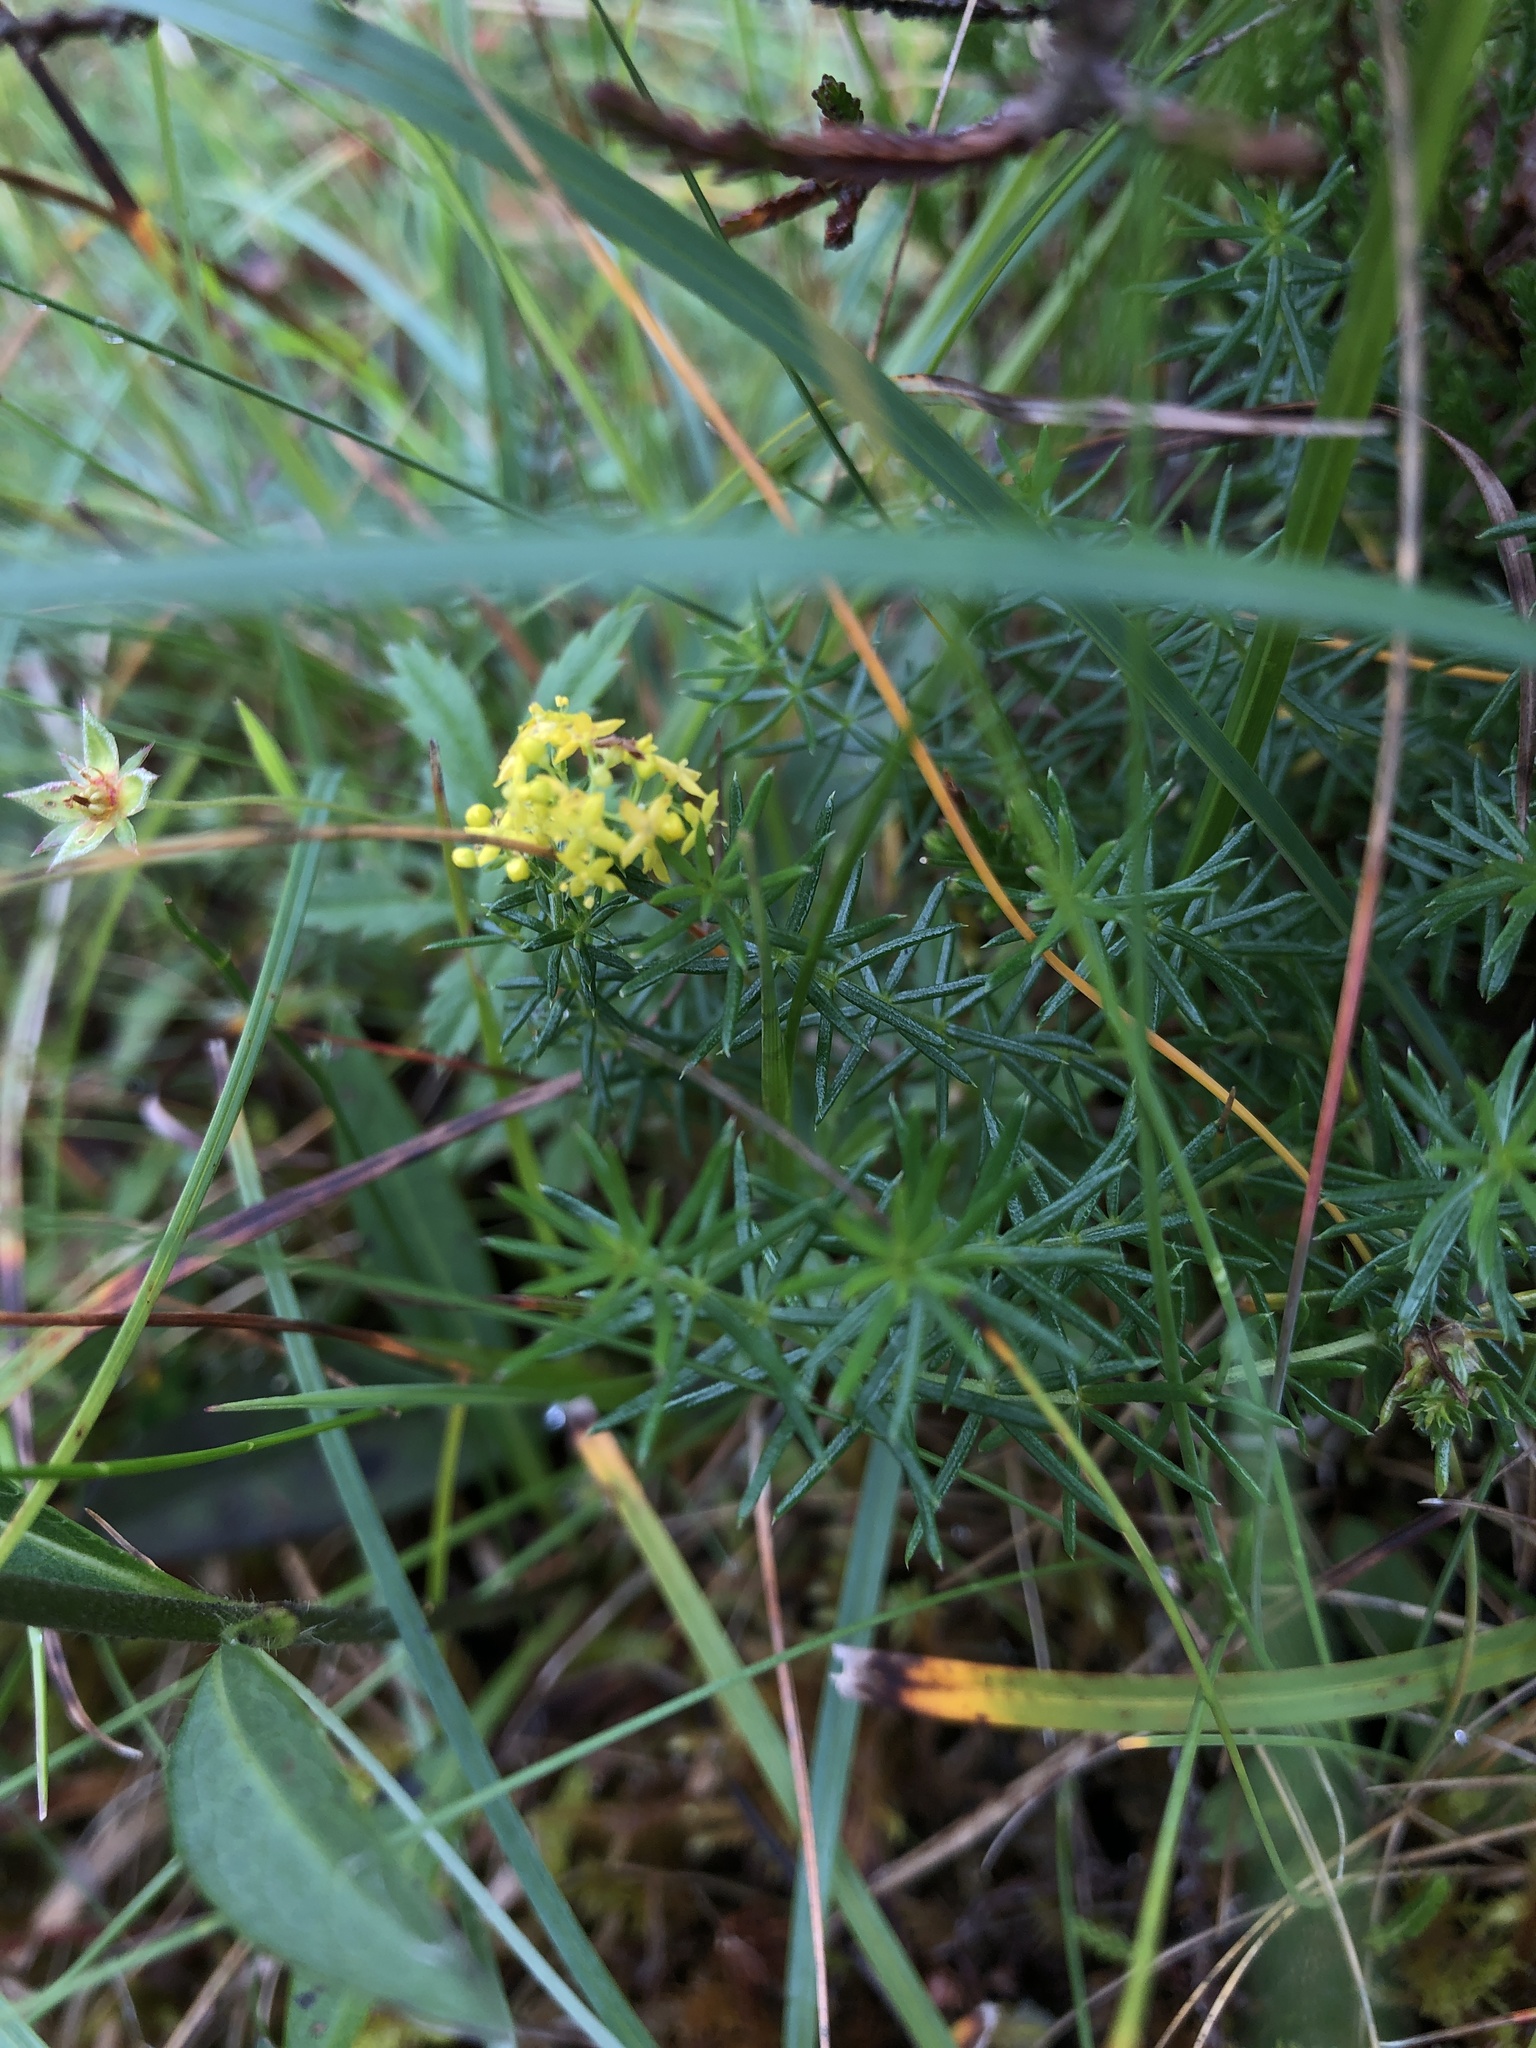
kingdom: Plantae
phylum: Tracheophyta
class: Magnoliopsida
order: Gentianales
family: Rubiaceae
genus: Galium
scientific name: Galium verum
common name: Lady's bedstraw
